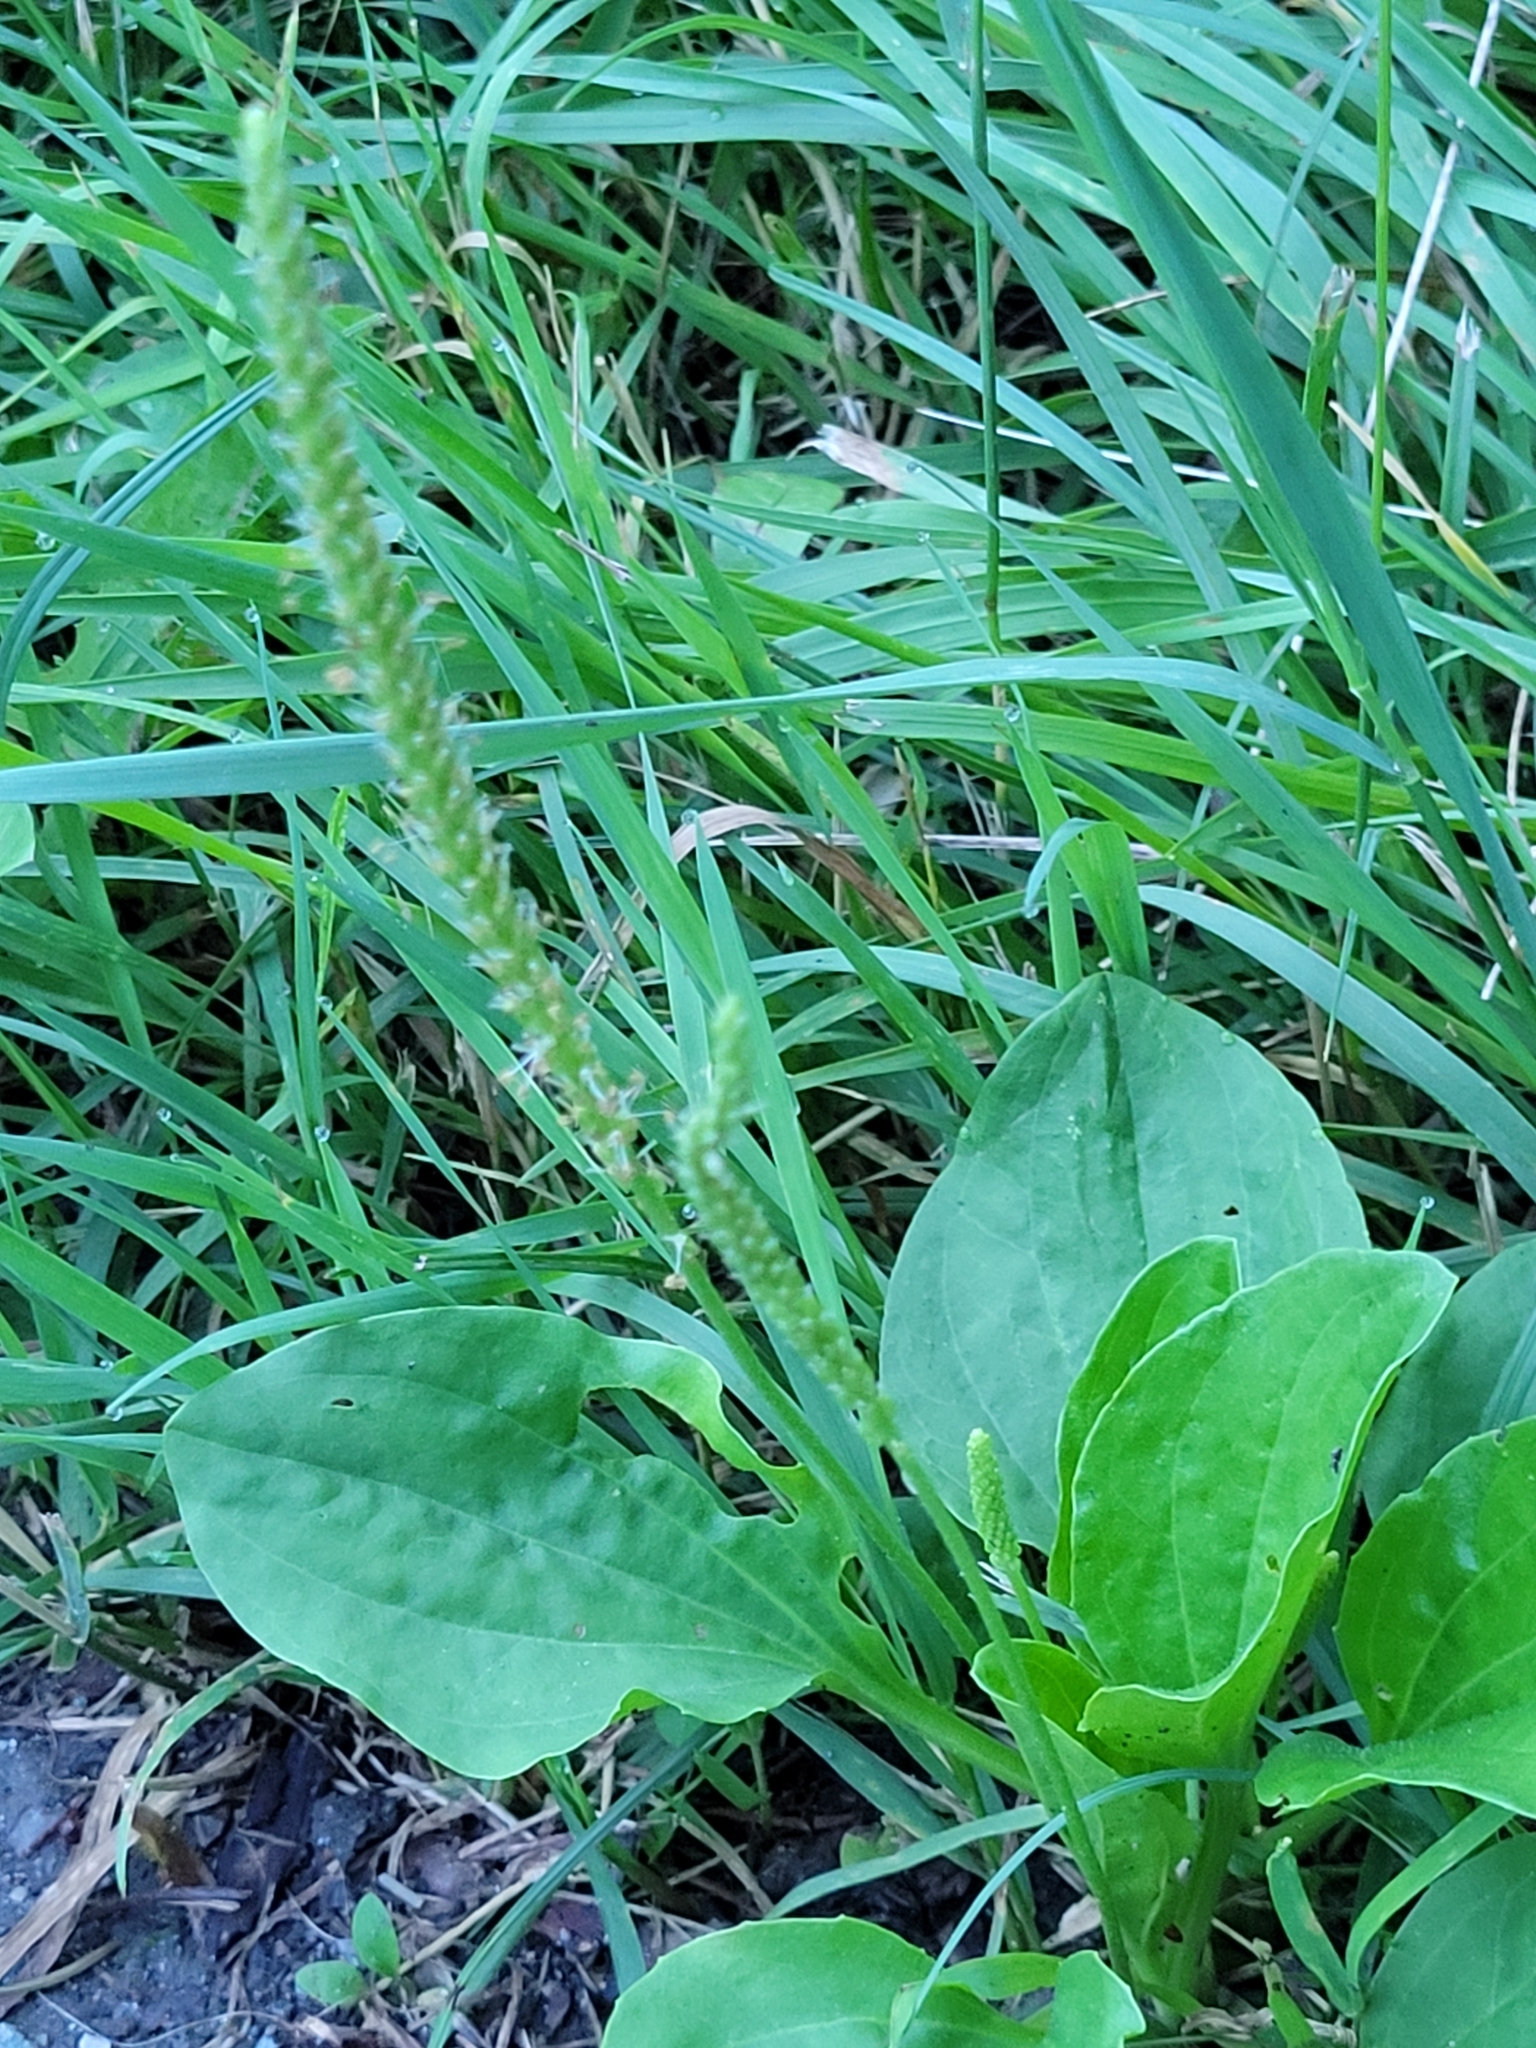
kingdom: Plantae
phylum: Tracheophyta
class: Magnoliopsida
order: Lamiales
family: Plantaginaceae
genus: Plantago
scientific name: Plantago major
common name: Common plantain
